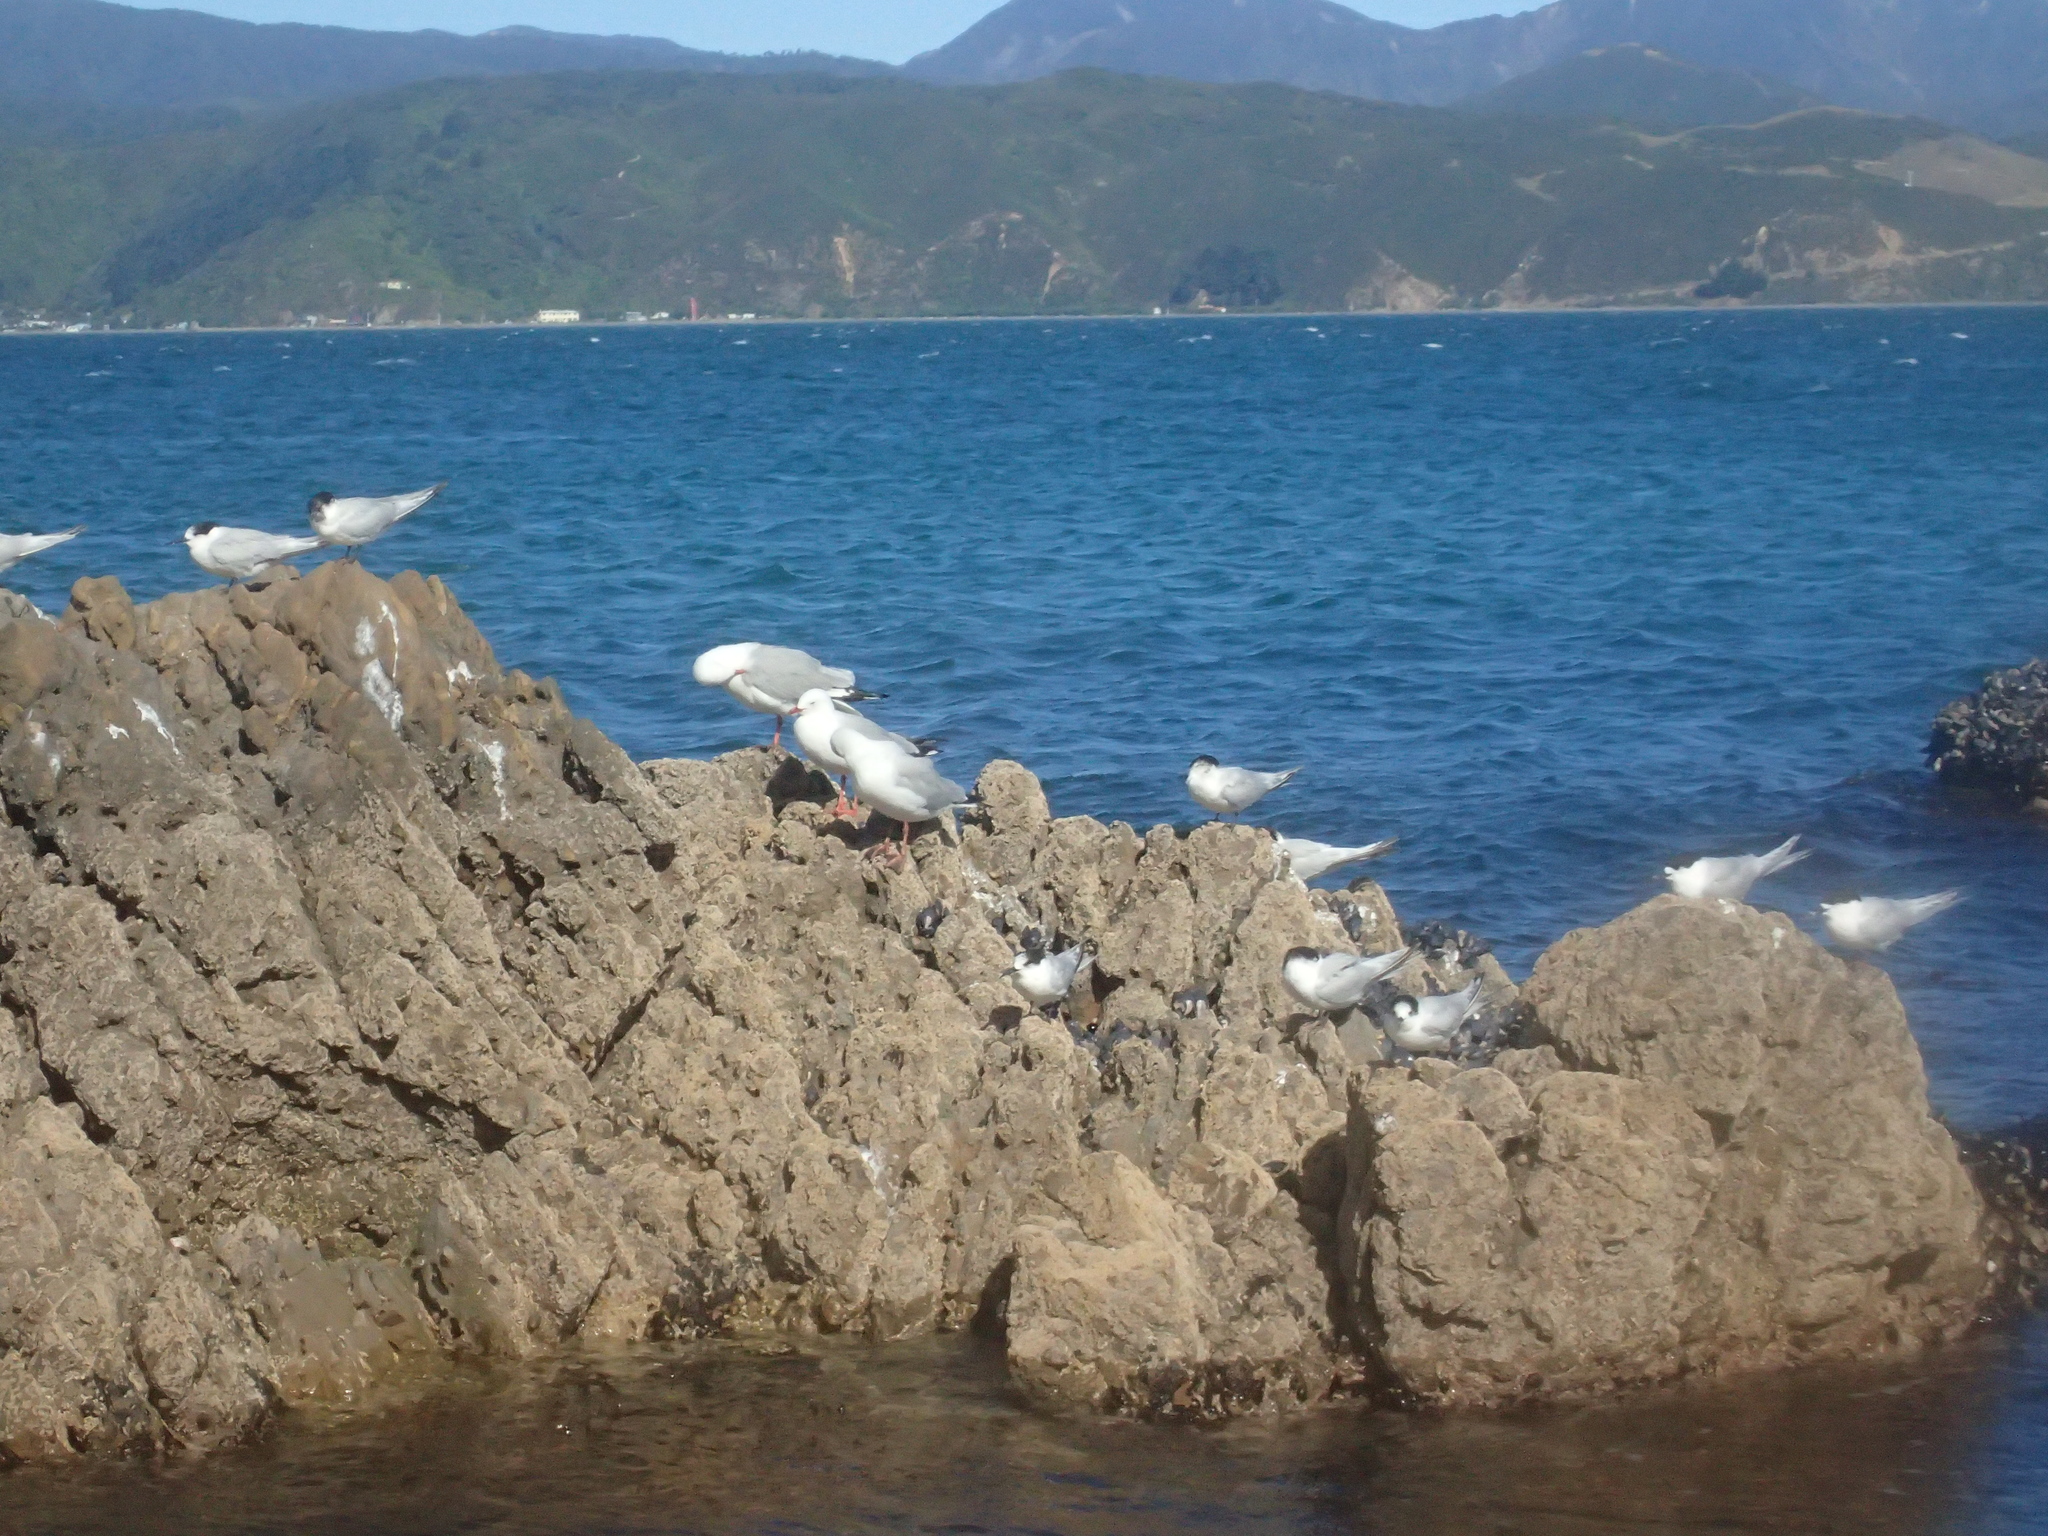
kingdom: Animalia
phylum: Chordata
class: Aves
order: Charadriiformes
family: Laridae
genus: Sterna
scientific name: Sterna striata
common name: White-fronted tern
